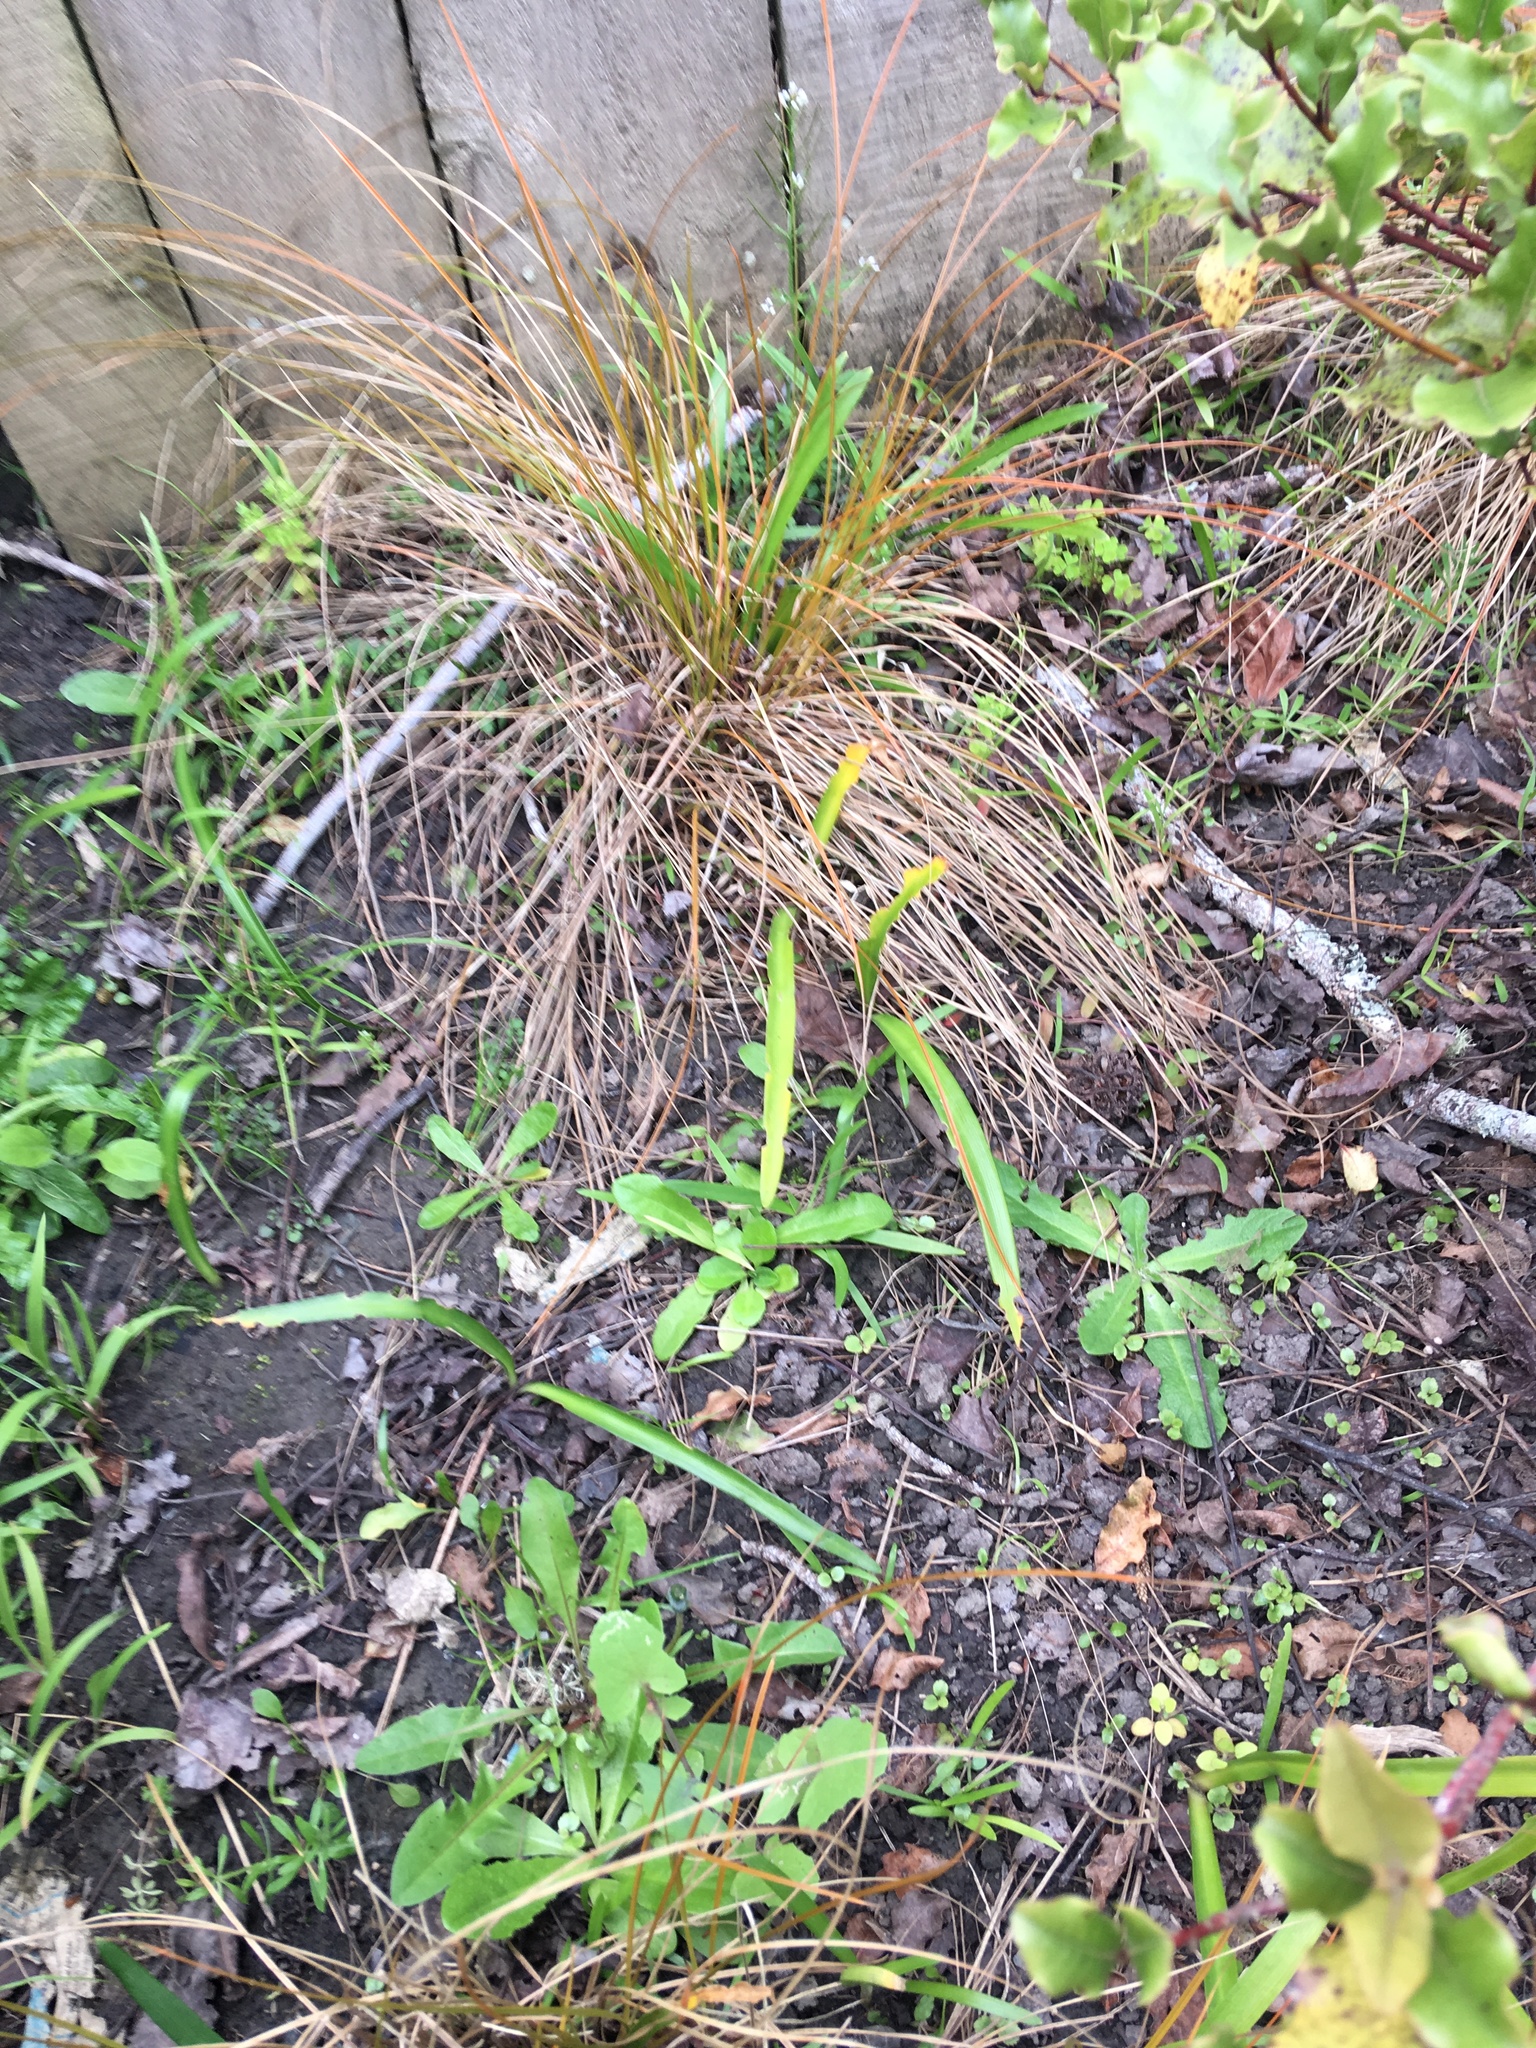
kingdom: Plantae
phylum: Tracheophyta
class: Liliopsida
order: Asparagales
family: Amaryllidaceae
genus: Agapanthus
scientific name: Agapanthus praecox
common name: African-lily
